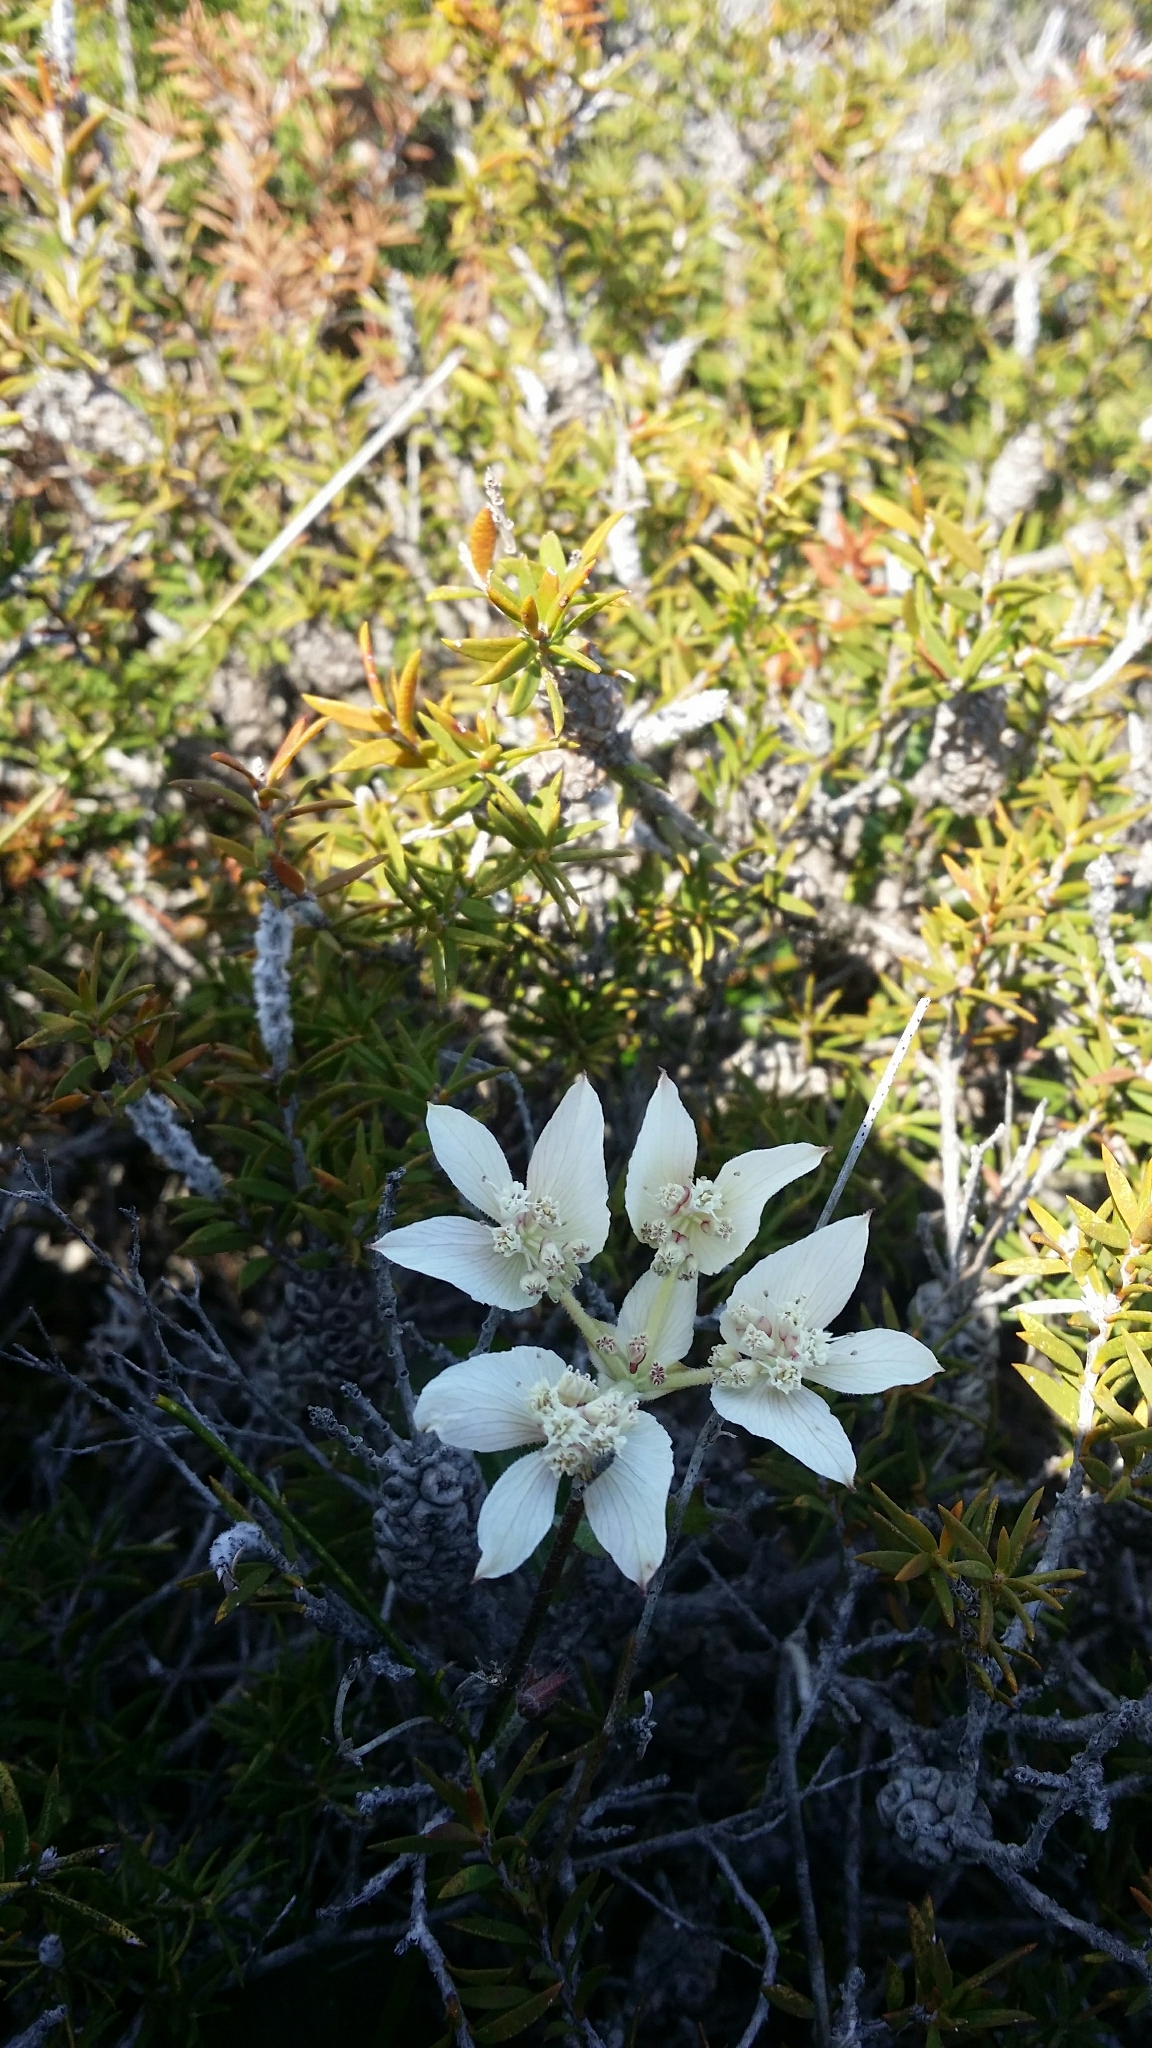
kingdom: Plantae
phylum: Tracheophyta
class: Magnoliopsida
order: Apiales
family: Apiaceae
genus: Xanthosia
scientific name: Xanthosia rotundifolia
